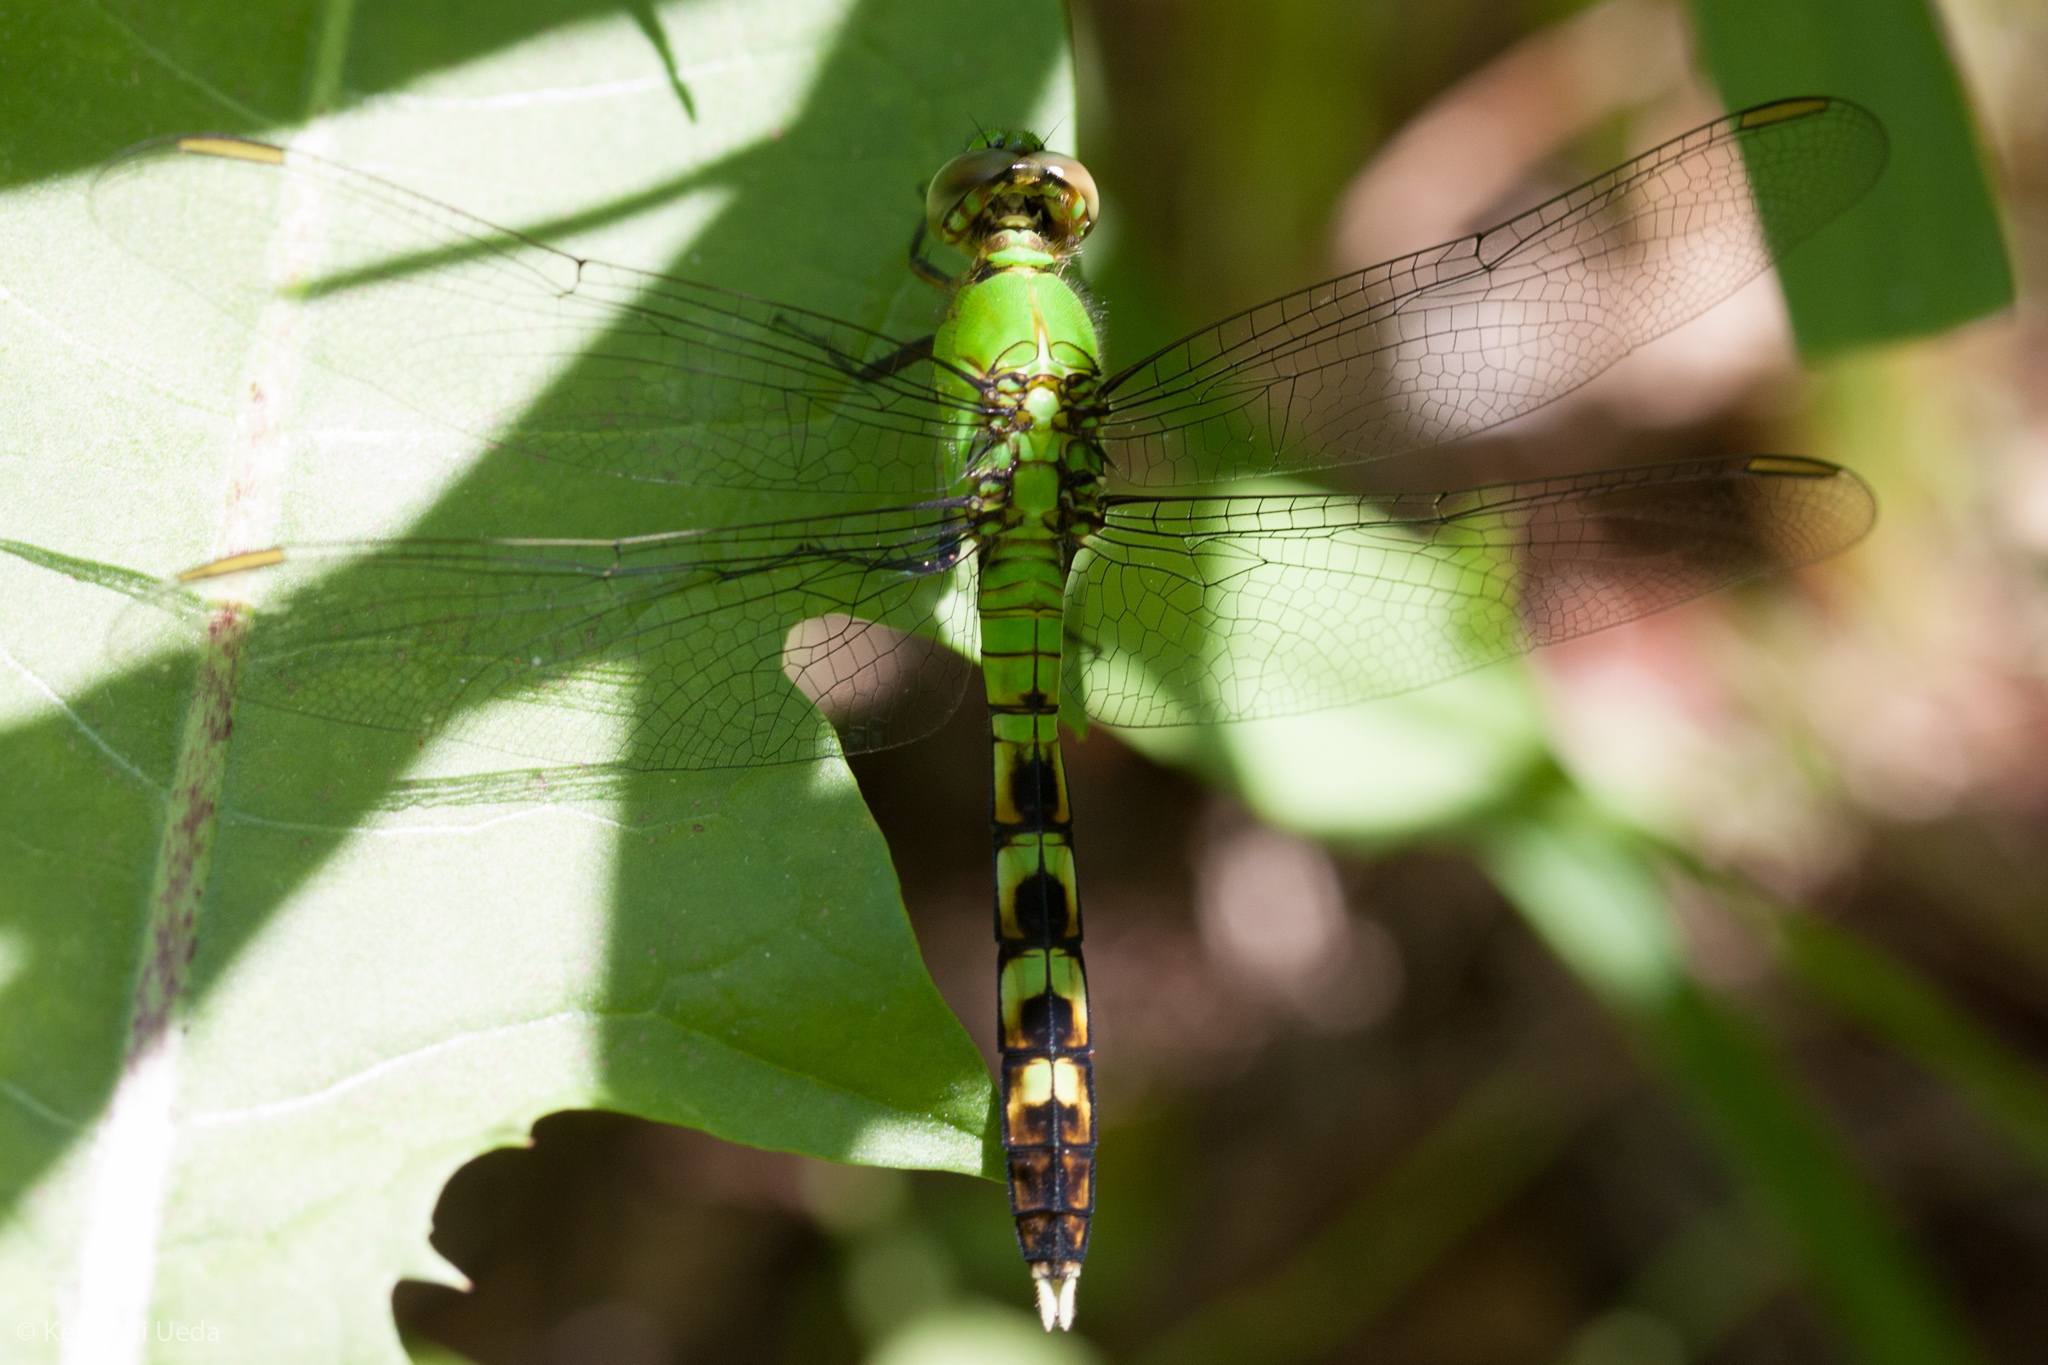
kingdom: Animalia
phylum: Arthropoda
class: Insecta
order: Odonata
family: Libellulidae
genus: Erythemis
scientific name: Erythemis simplicicollis
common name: Eastern pondhawk
